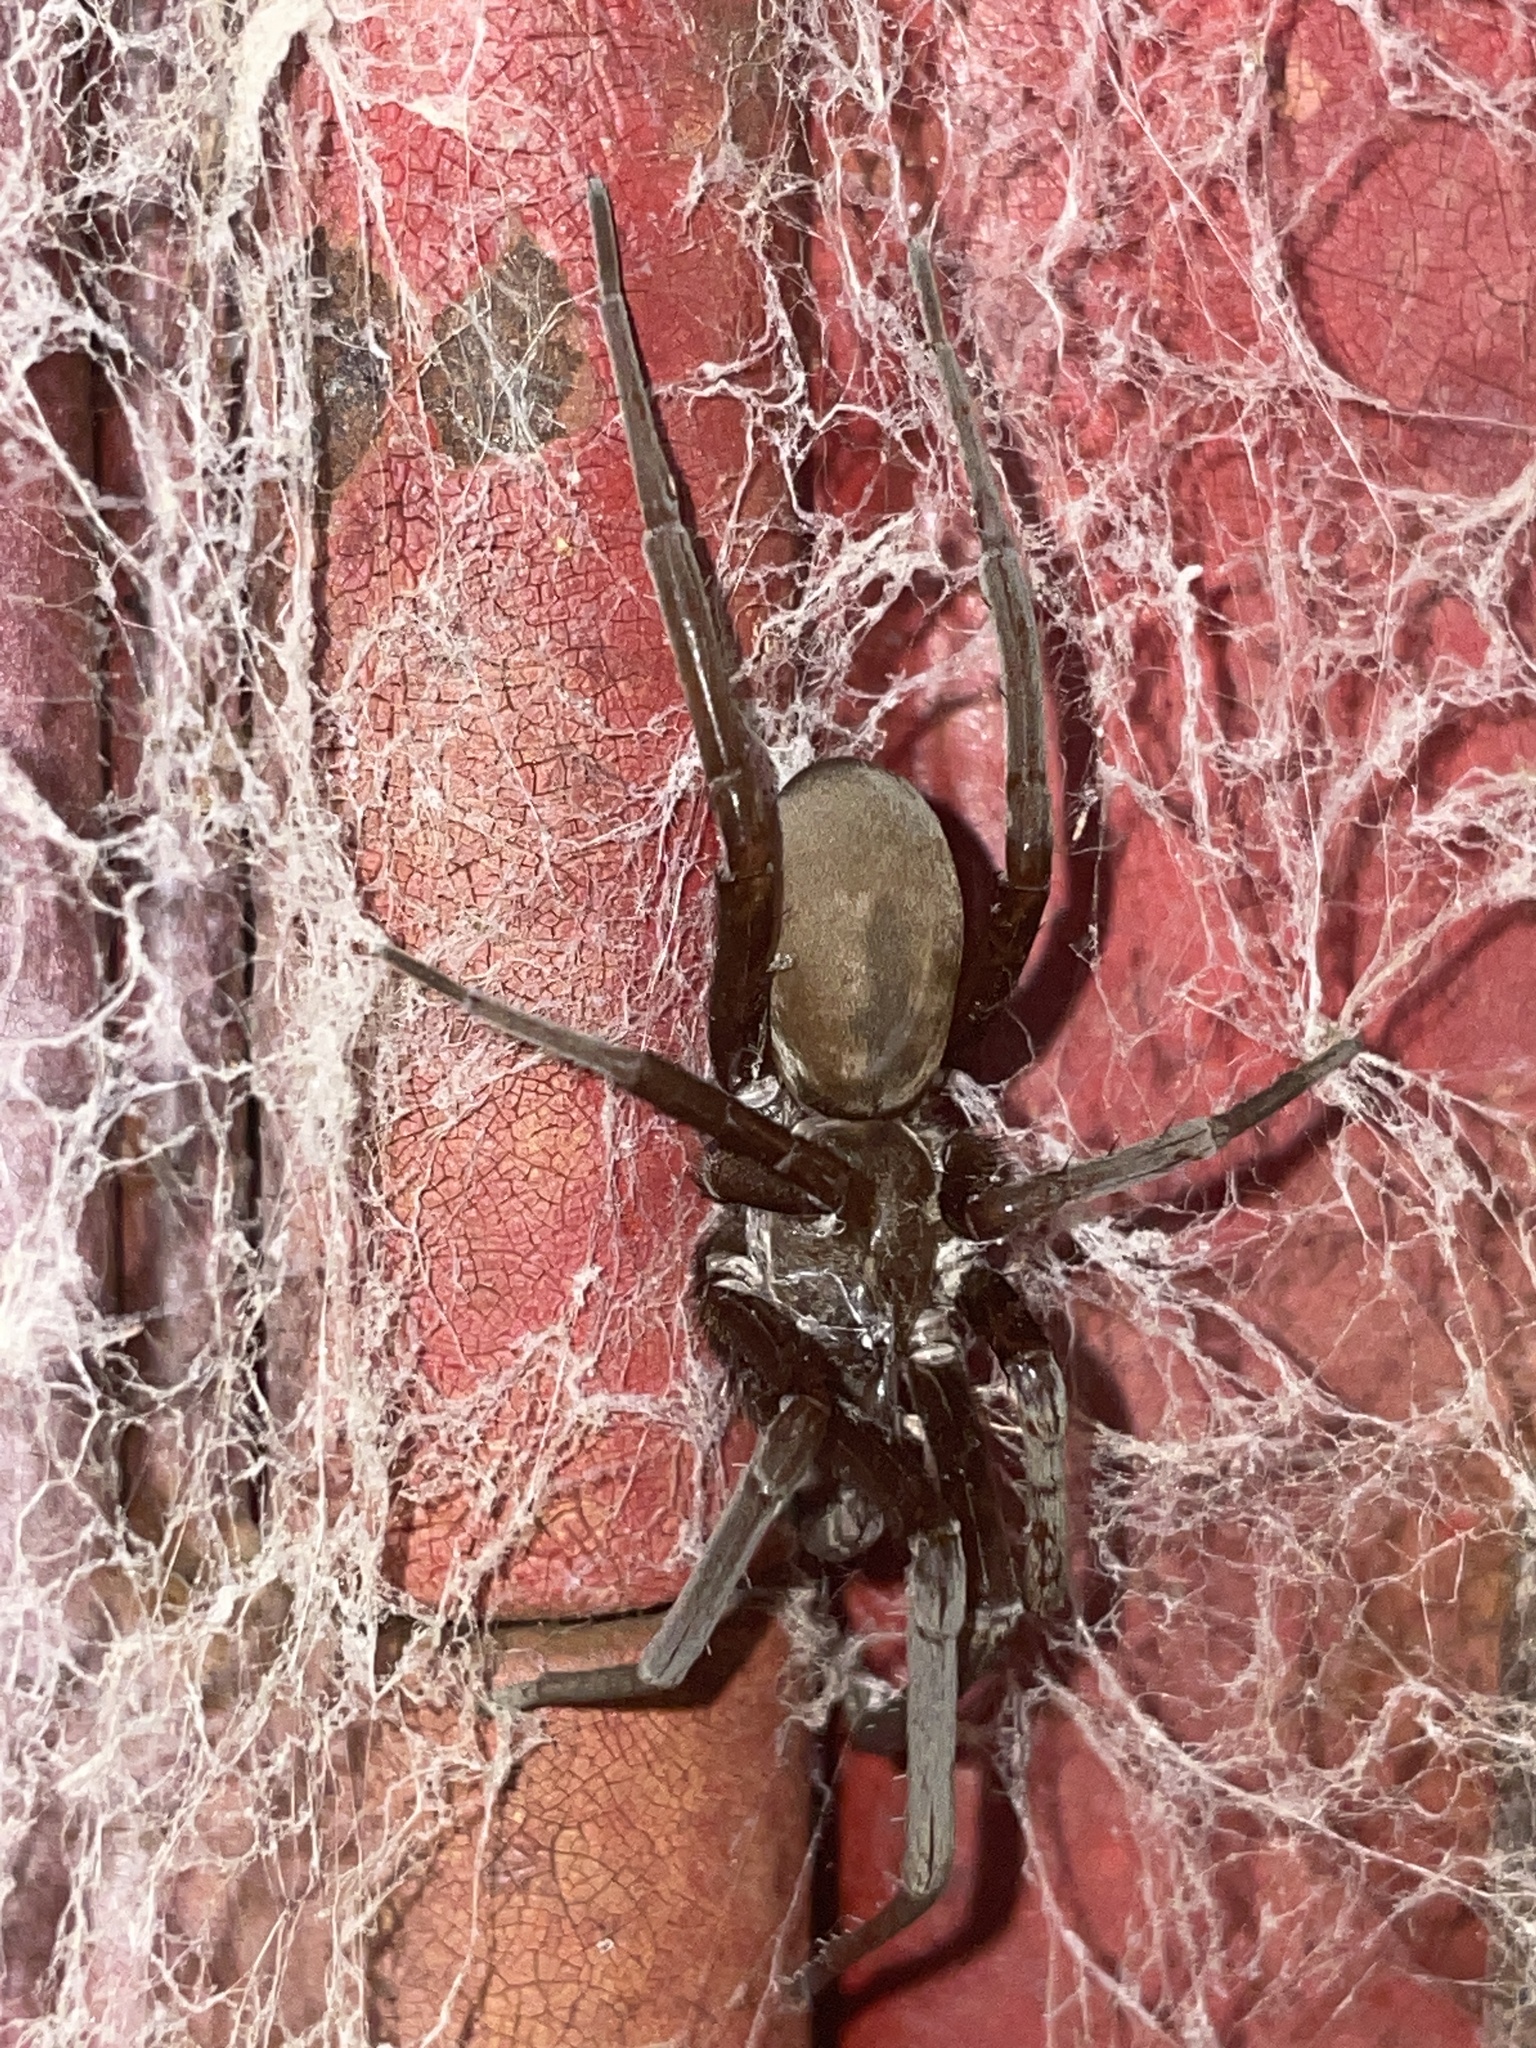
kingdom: Animalia
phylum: Arthropoda
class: Arachnida
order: Araneae
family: Filistatidae
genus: Kukulcania
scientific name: Kukulcania hibernalis
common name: Crevice weaver
